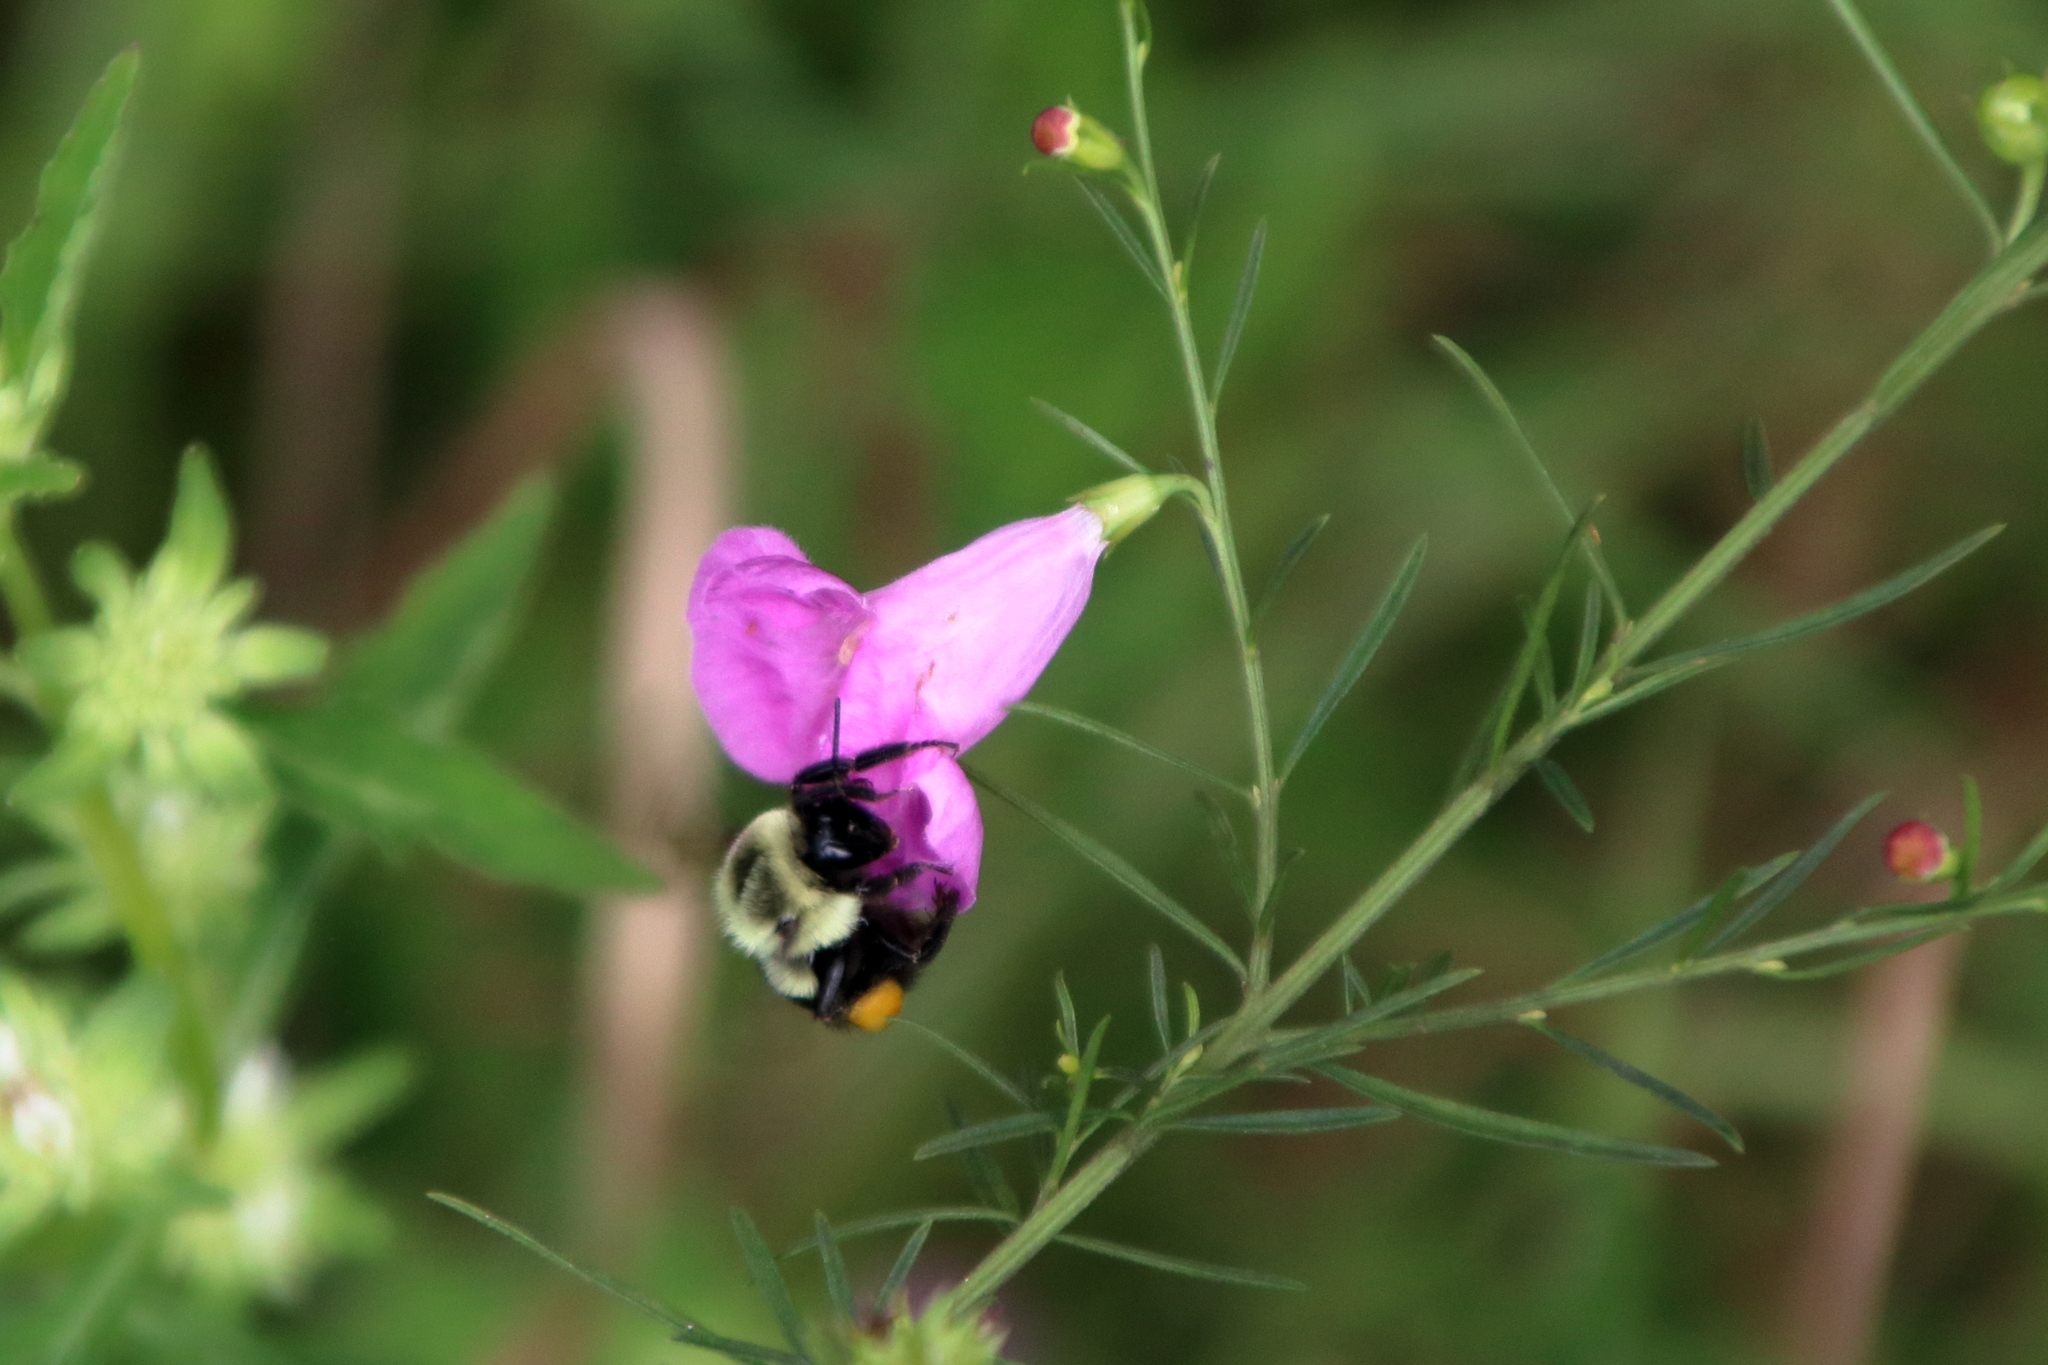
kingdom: Animalia
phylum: Arthropoda
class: Insecta
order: Hymenoptera
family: Apidae
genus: Bombus
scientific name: Bombus impatiens
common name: Common eastern bumble bee
